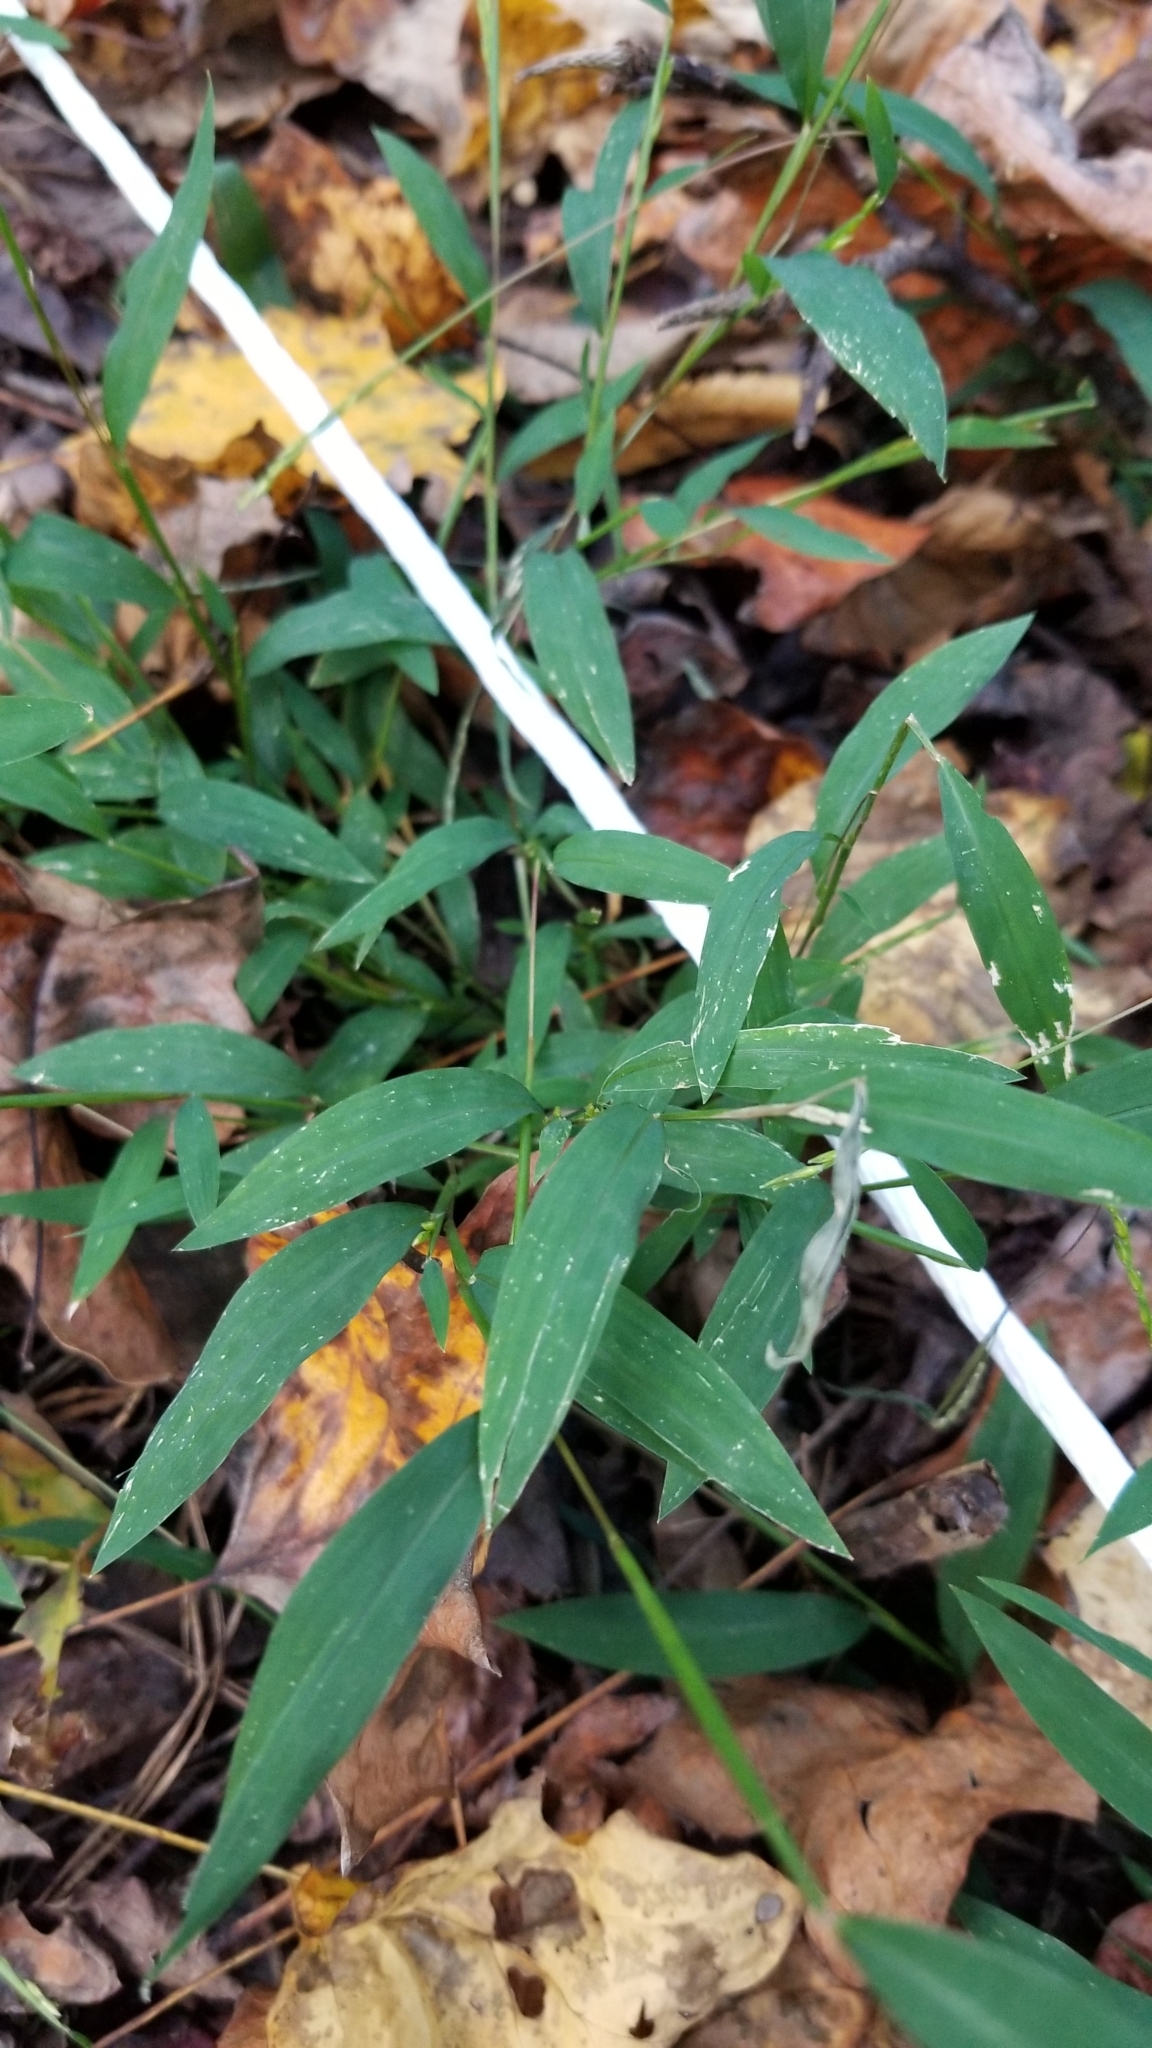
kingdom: Plantae
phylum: Tracheophyta
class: Liliopsida
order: Poales
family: Poaceae
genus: Microstegium
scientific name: Microstegium vimineum
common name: Japanese stiltgrass
